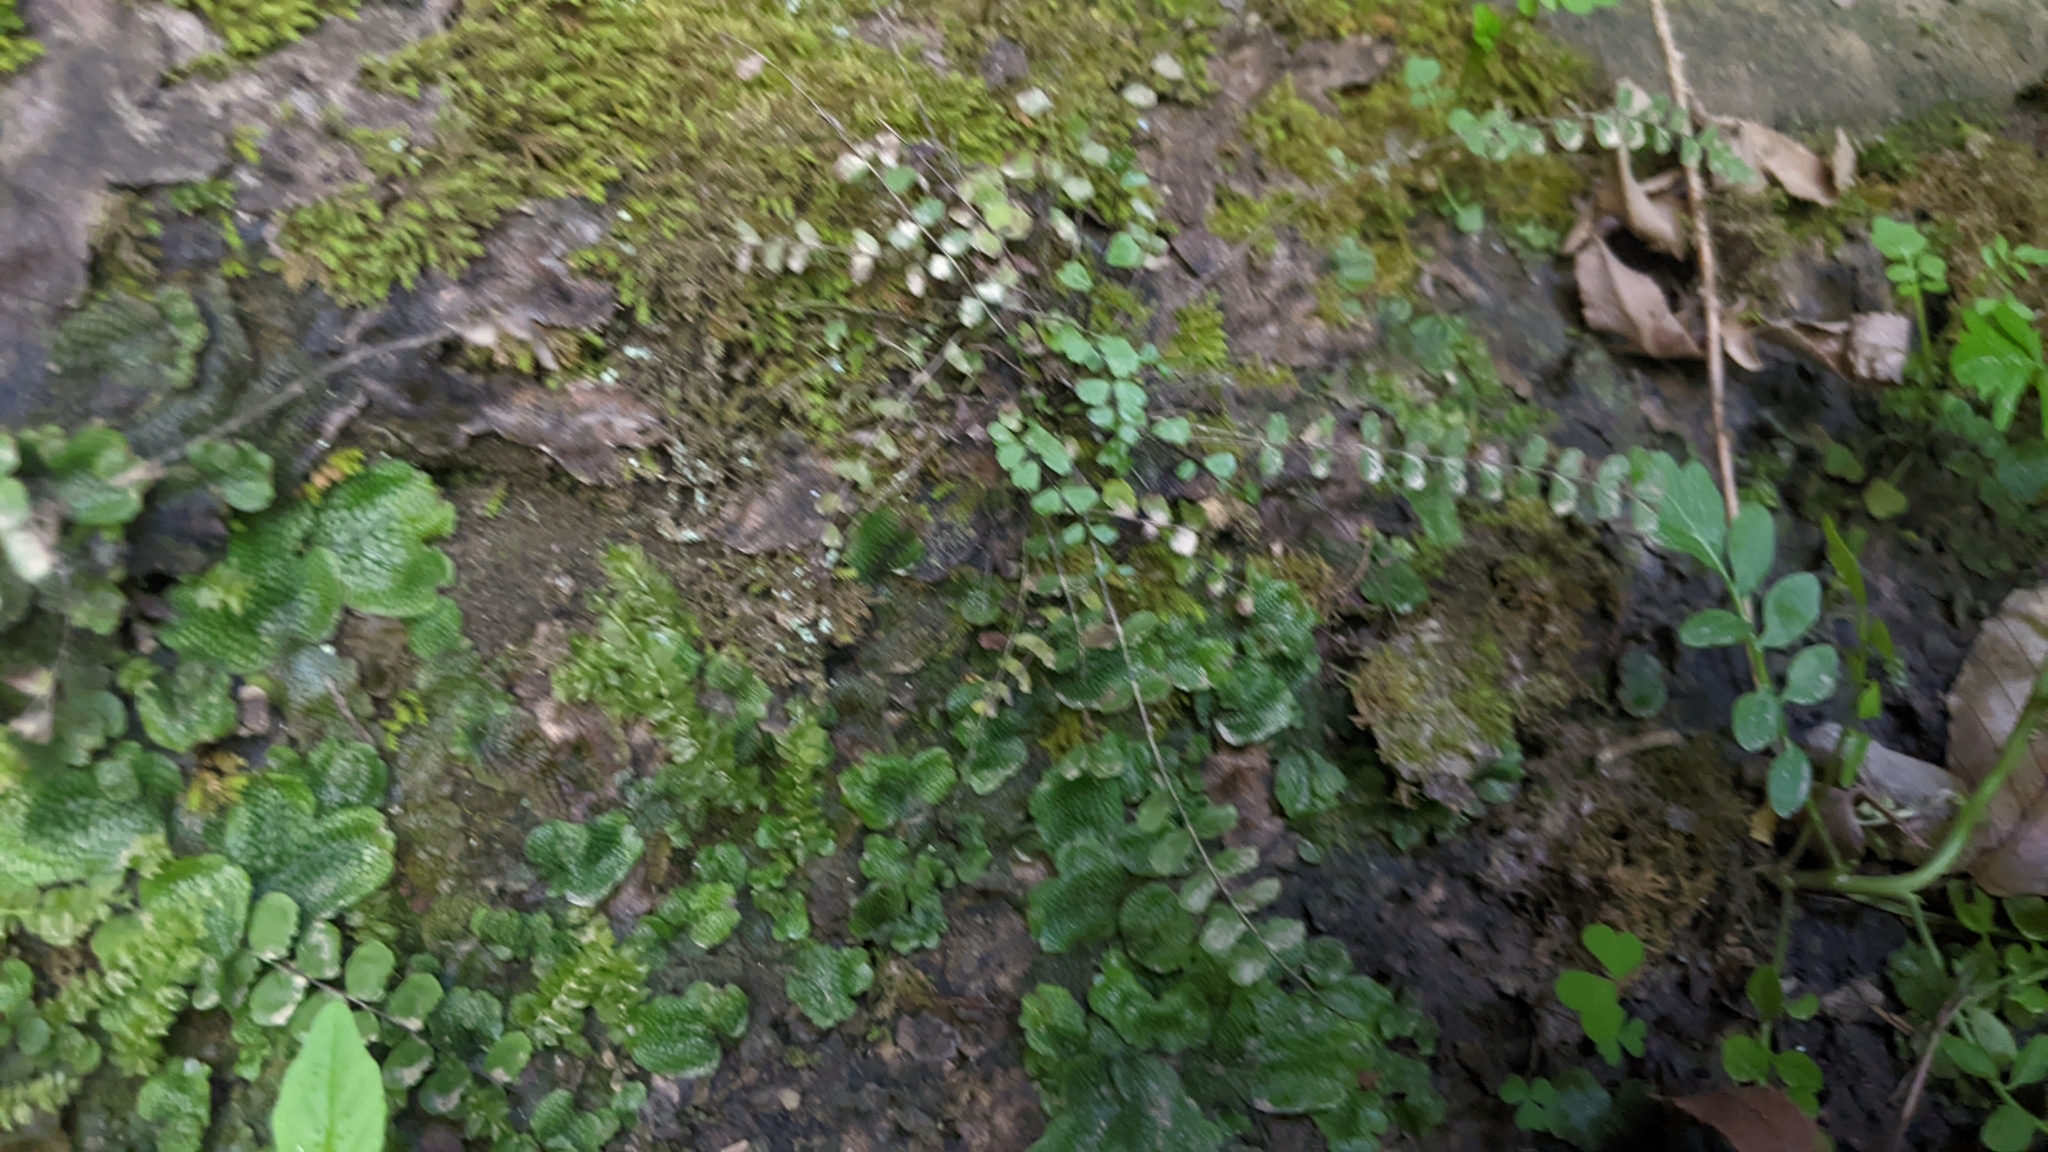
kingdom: Plantae
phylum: Tracheophyta
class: Polypodiopsida
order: Polypodiales
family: Aspleniaceae
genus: Asplenium
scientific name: Asplenium trichomanes
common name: Maidenhair spleenwort
